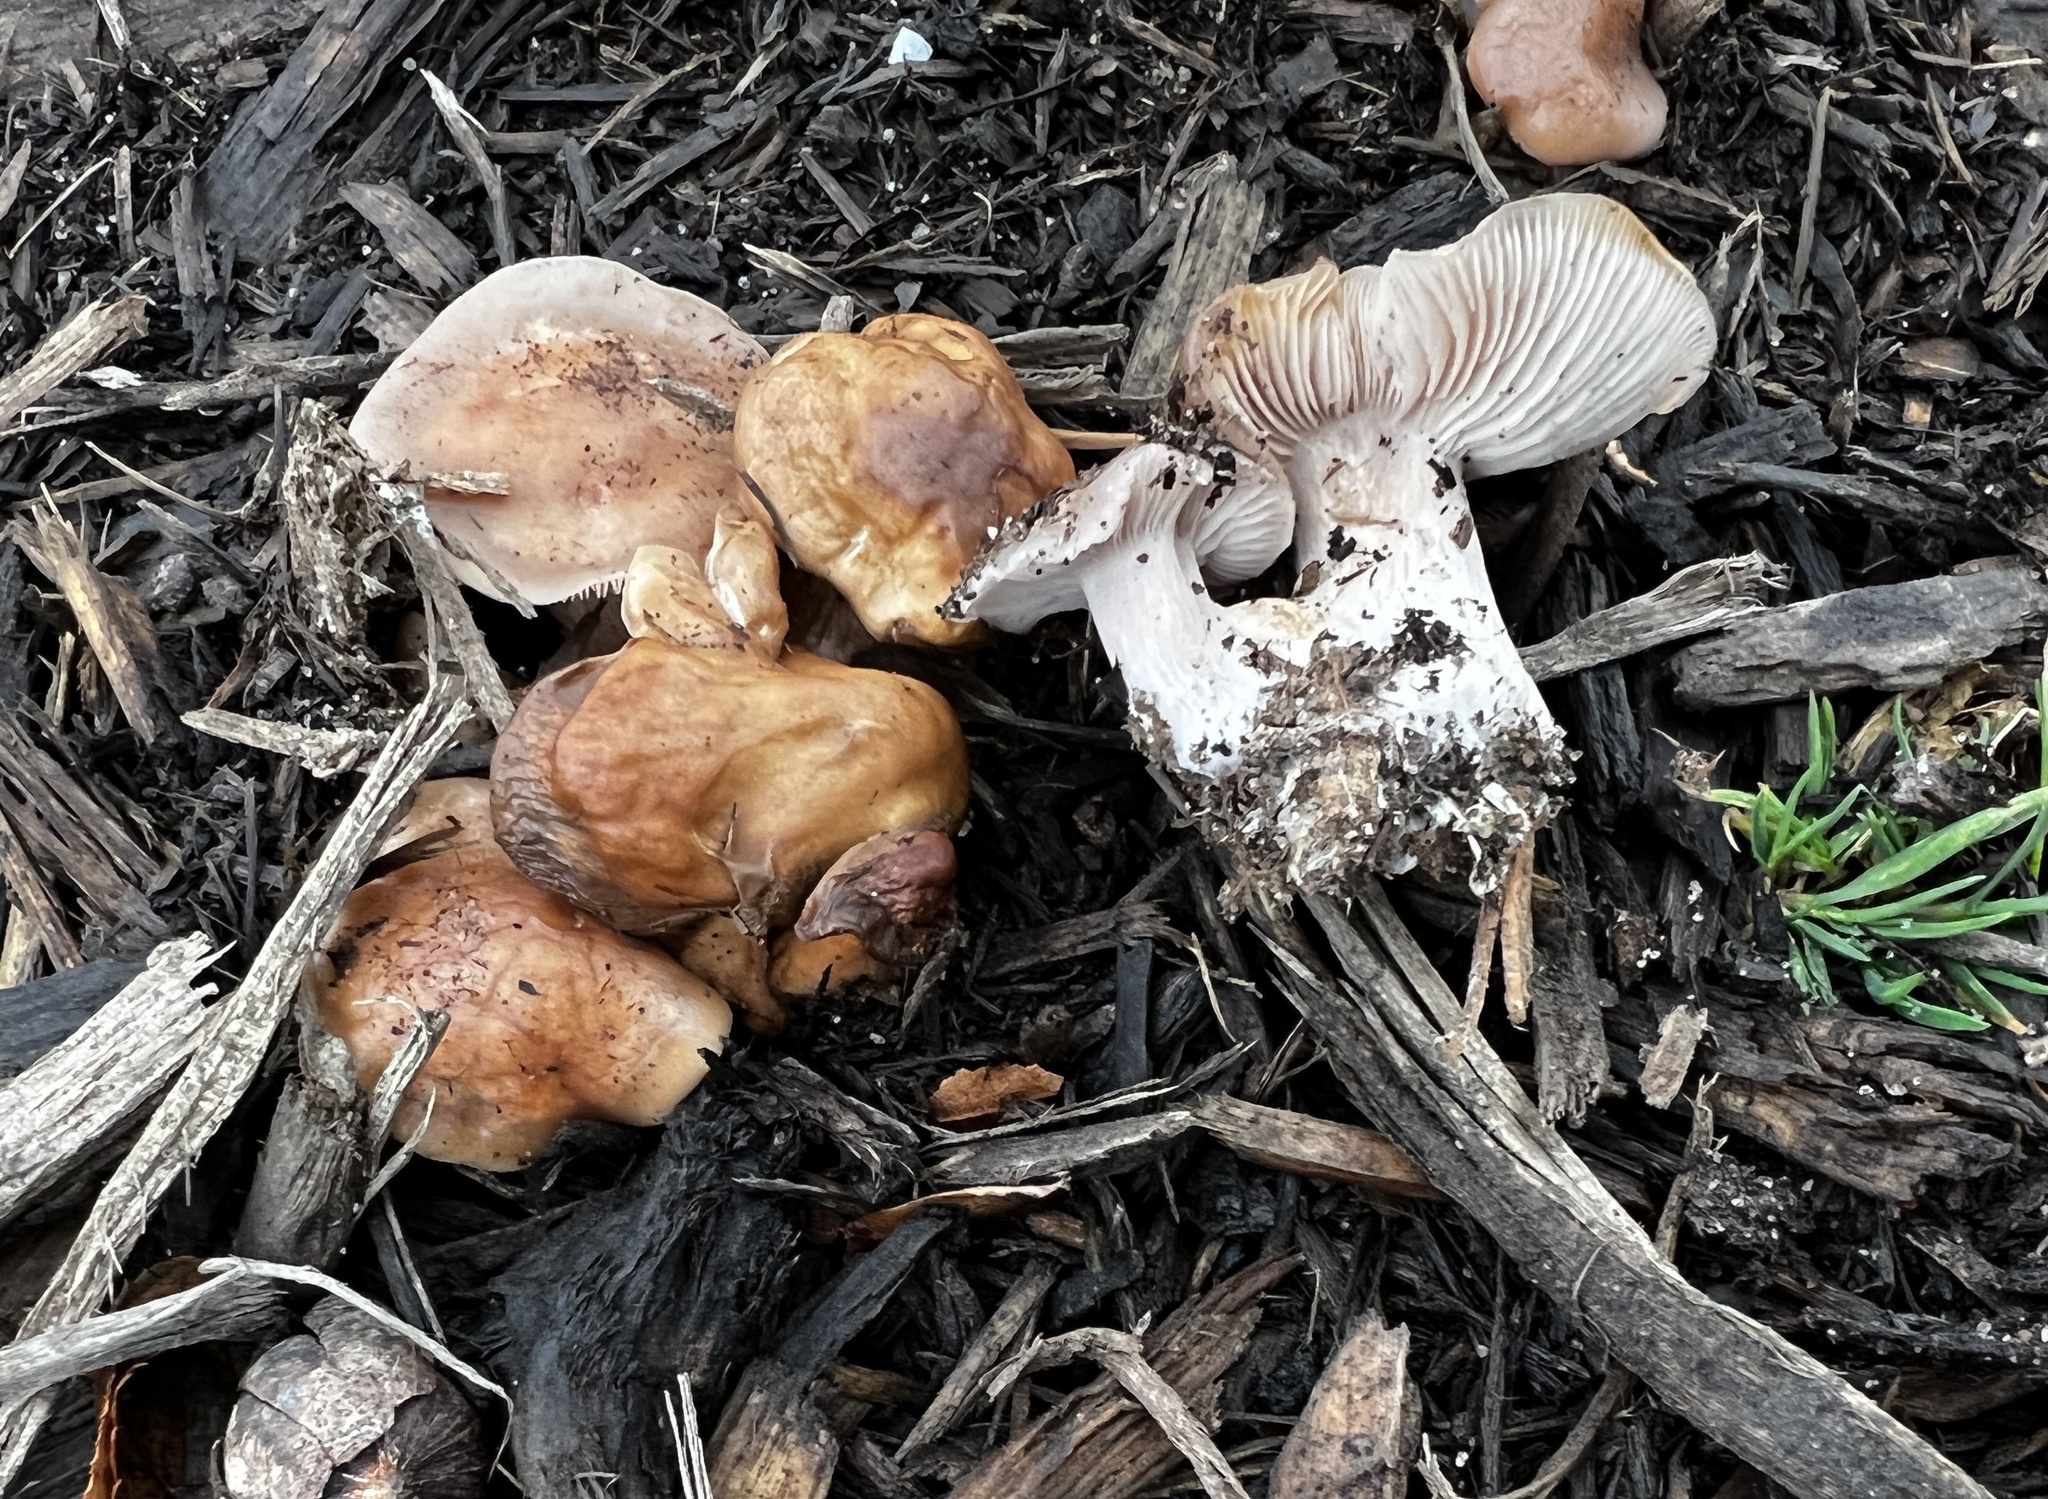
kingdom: Fungi
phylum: Basidiomycota
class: Agaricomycetes
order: Agaricales
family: Omphalotaceae
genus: Collybiopsis
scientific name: Collybiopsis peronata
